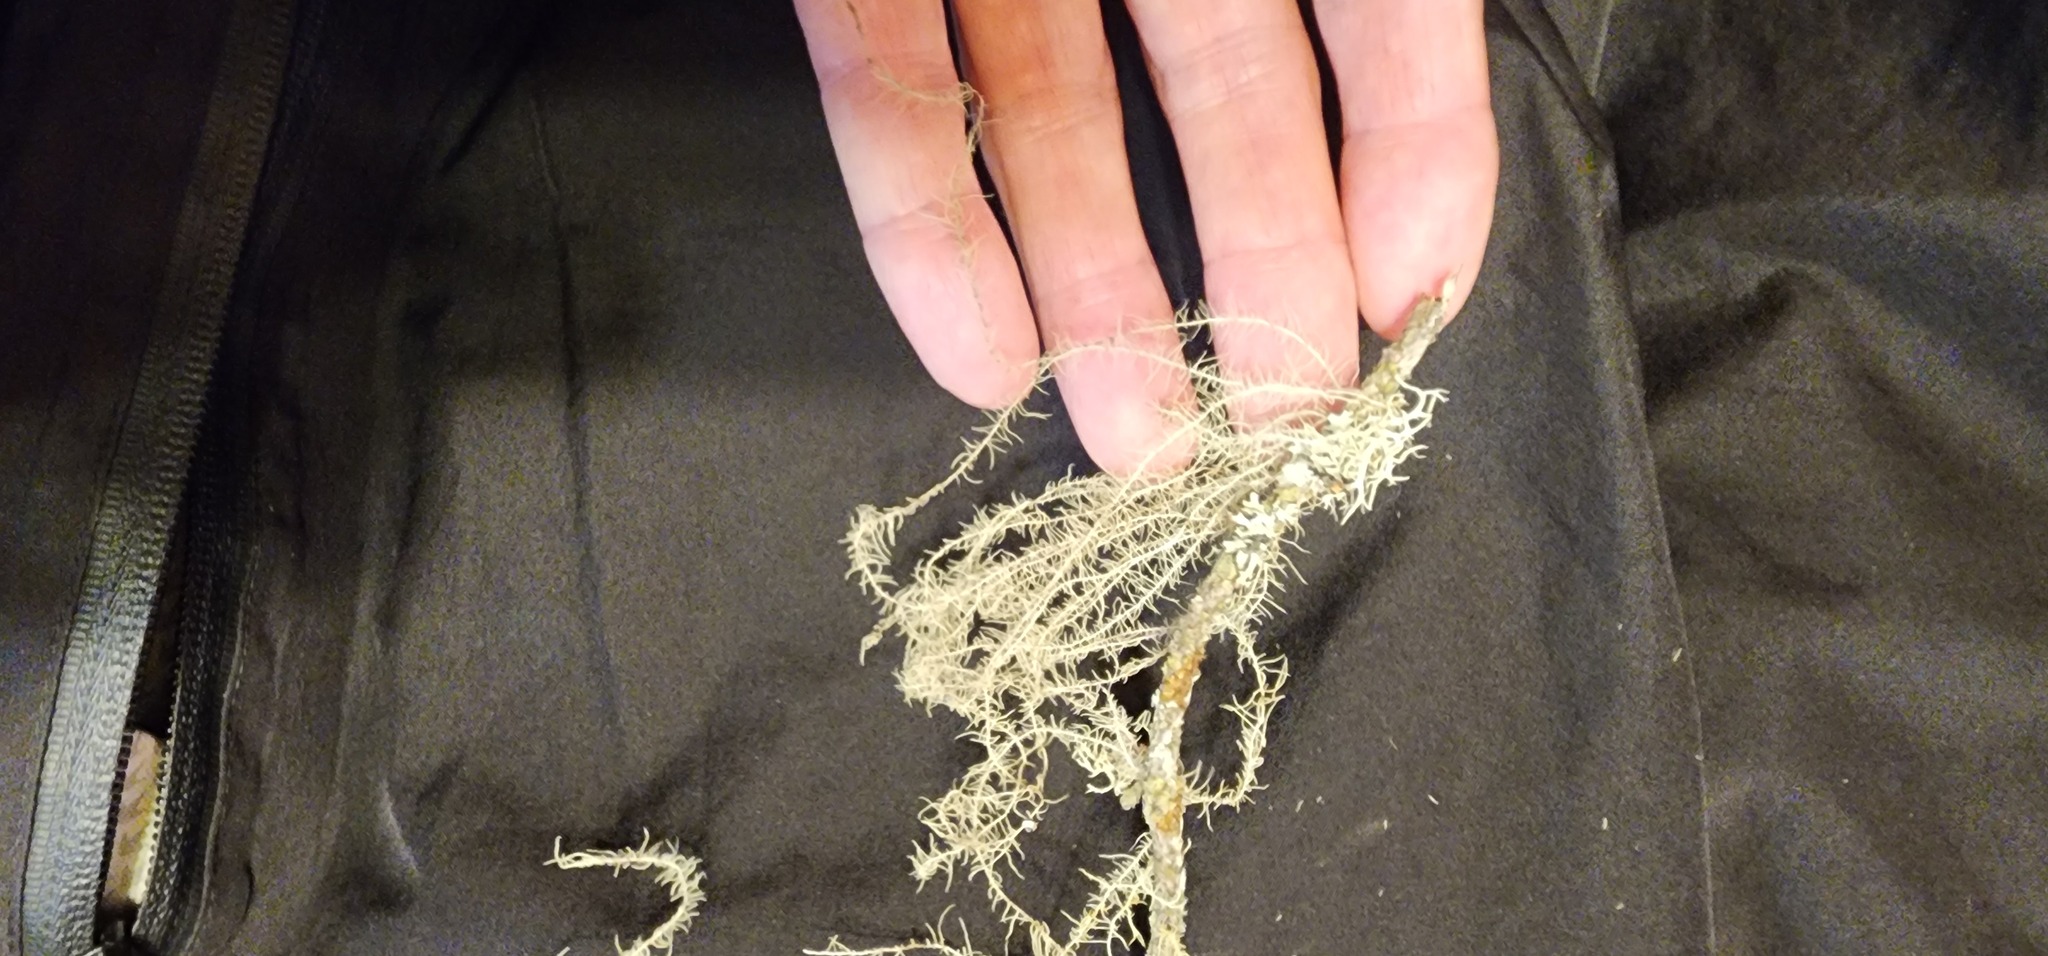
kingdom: Fungi
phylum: Ascomycota
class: Lecanoromycetes
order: Lecanorales
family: Parmeliaceae
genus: Dolichousnea
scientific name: Dolichousnea longissima
